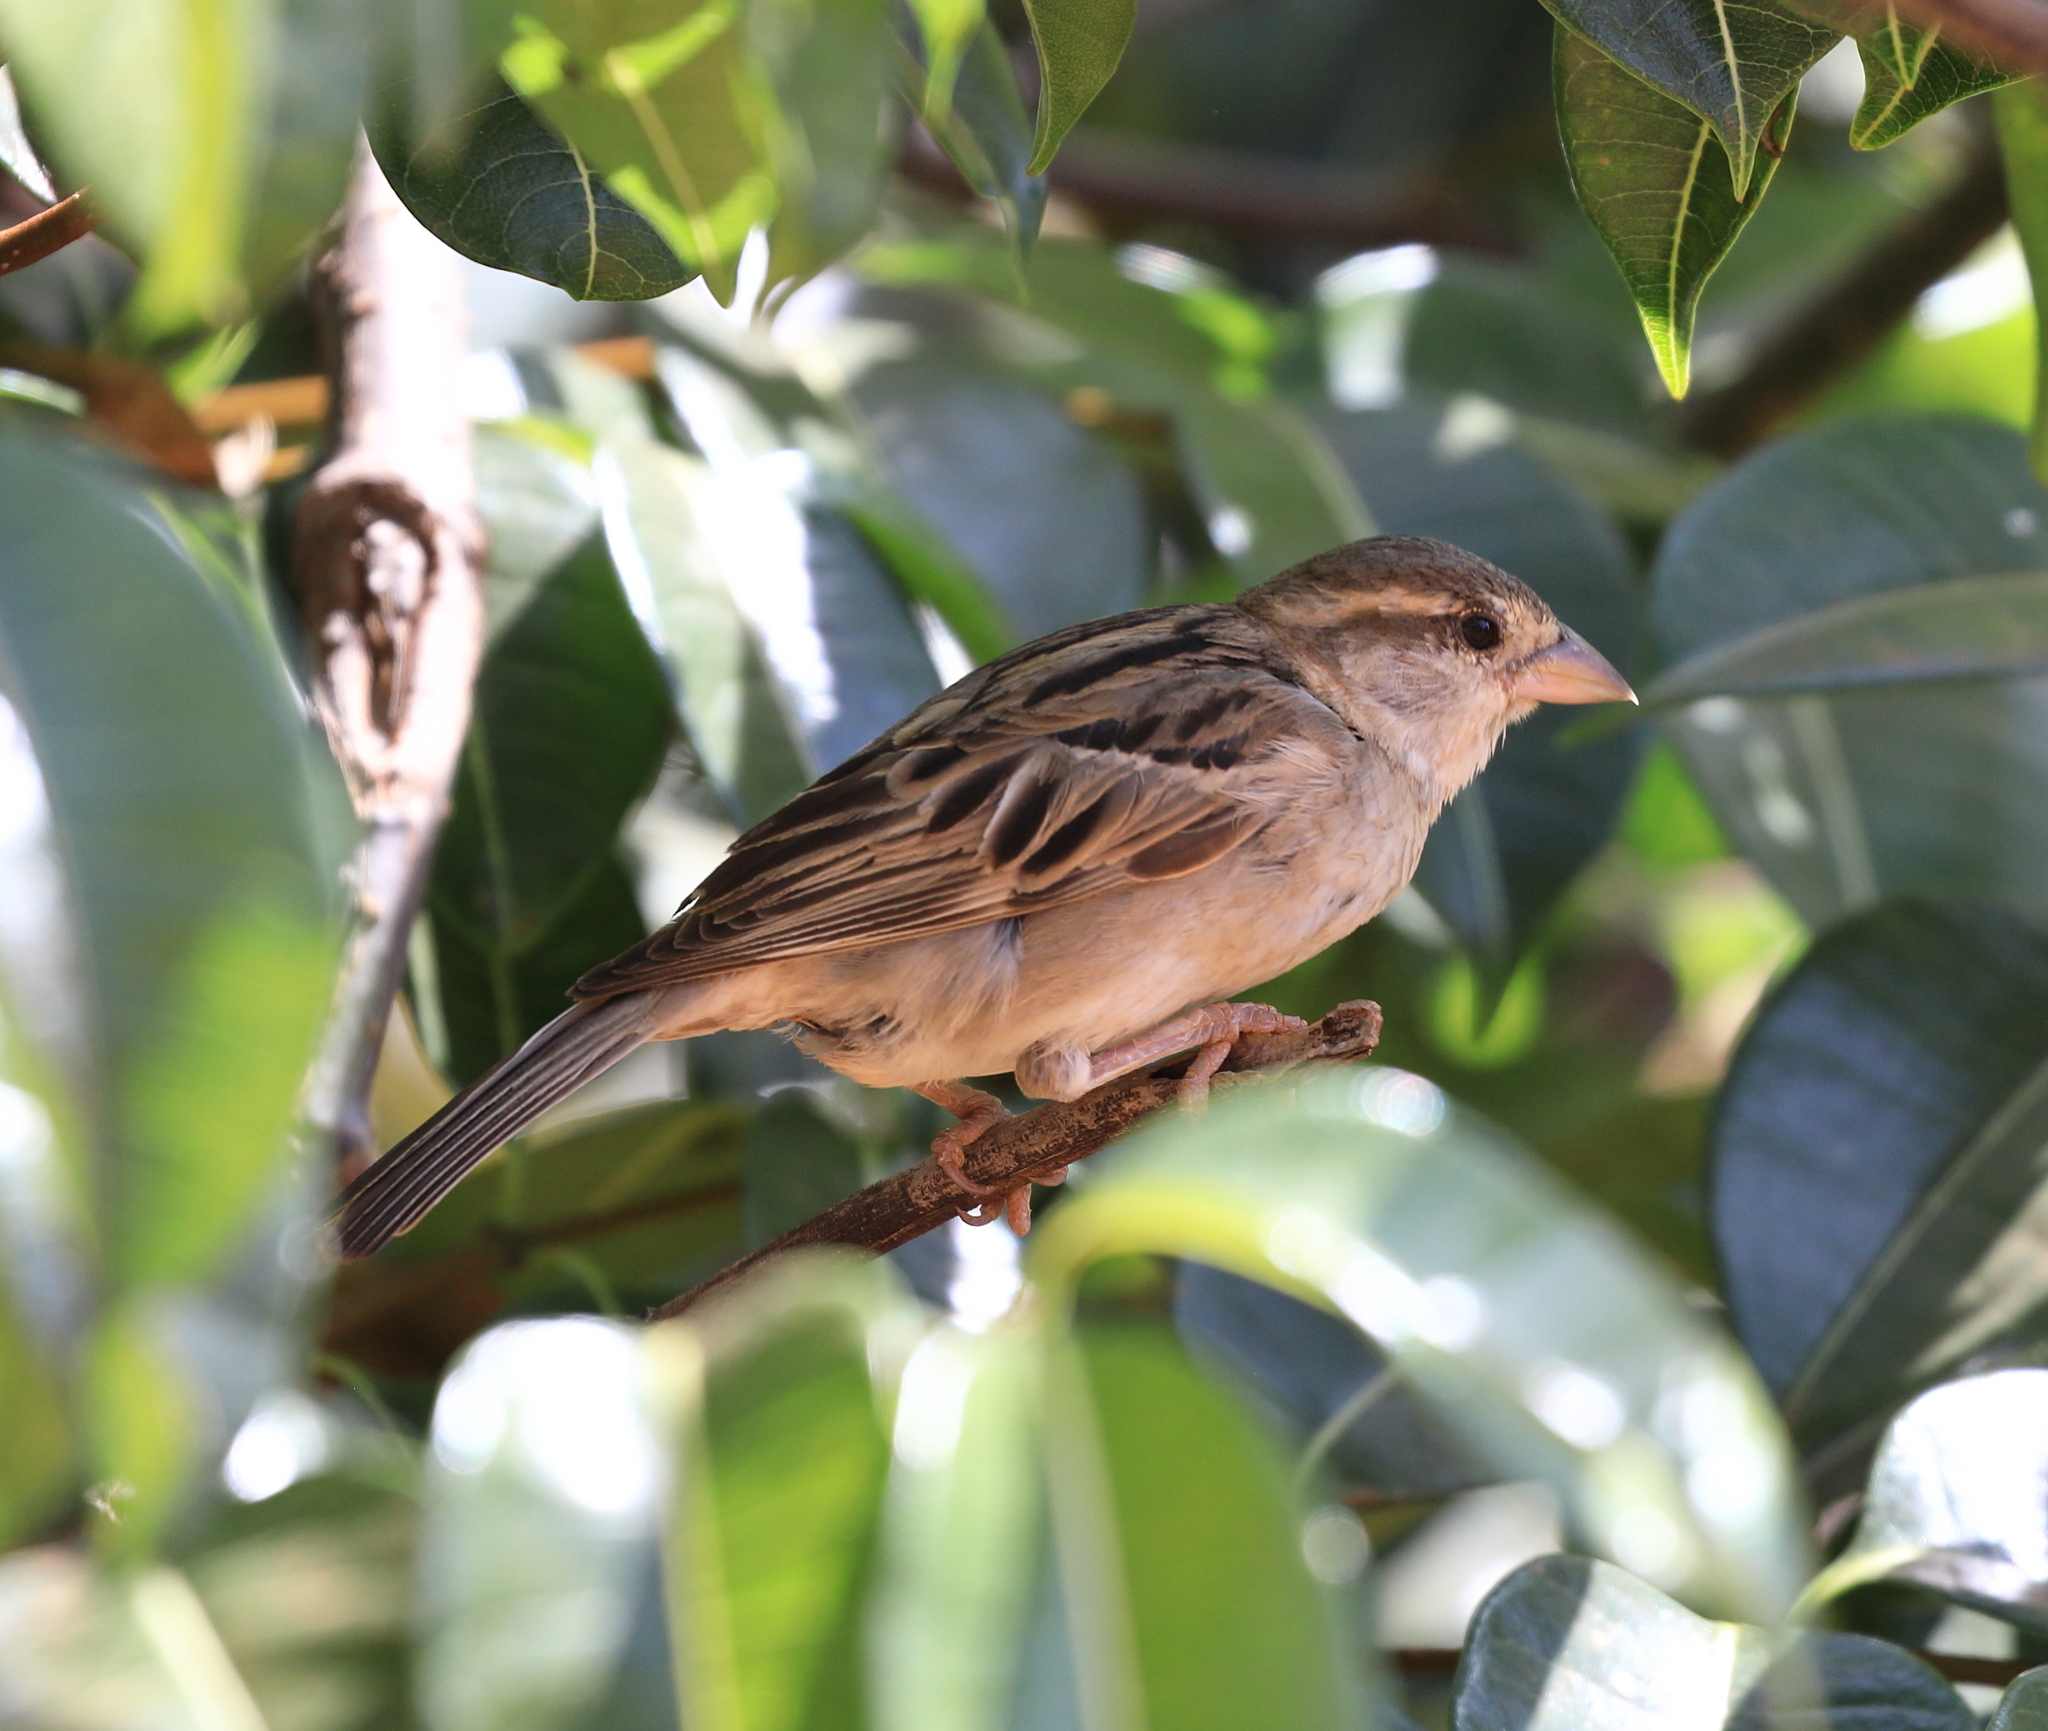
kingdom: Animalia
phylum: Chordata
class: Aves
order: Passeriformes
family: Passeridae
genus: Passer
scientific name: Passer domesticus
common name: House sparrow
